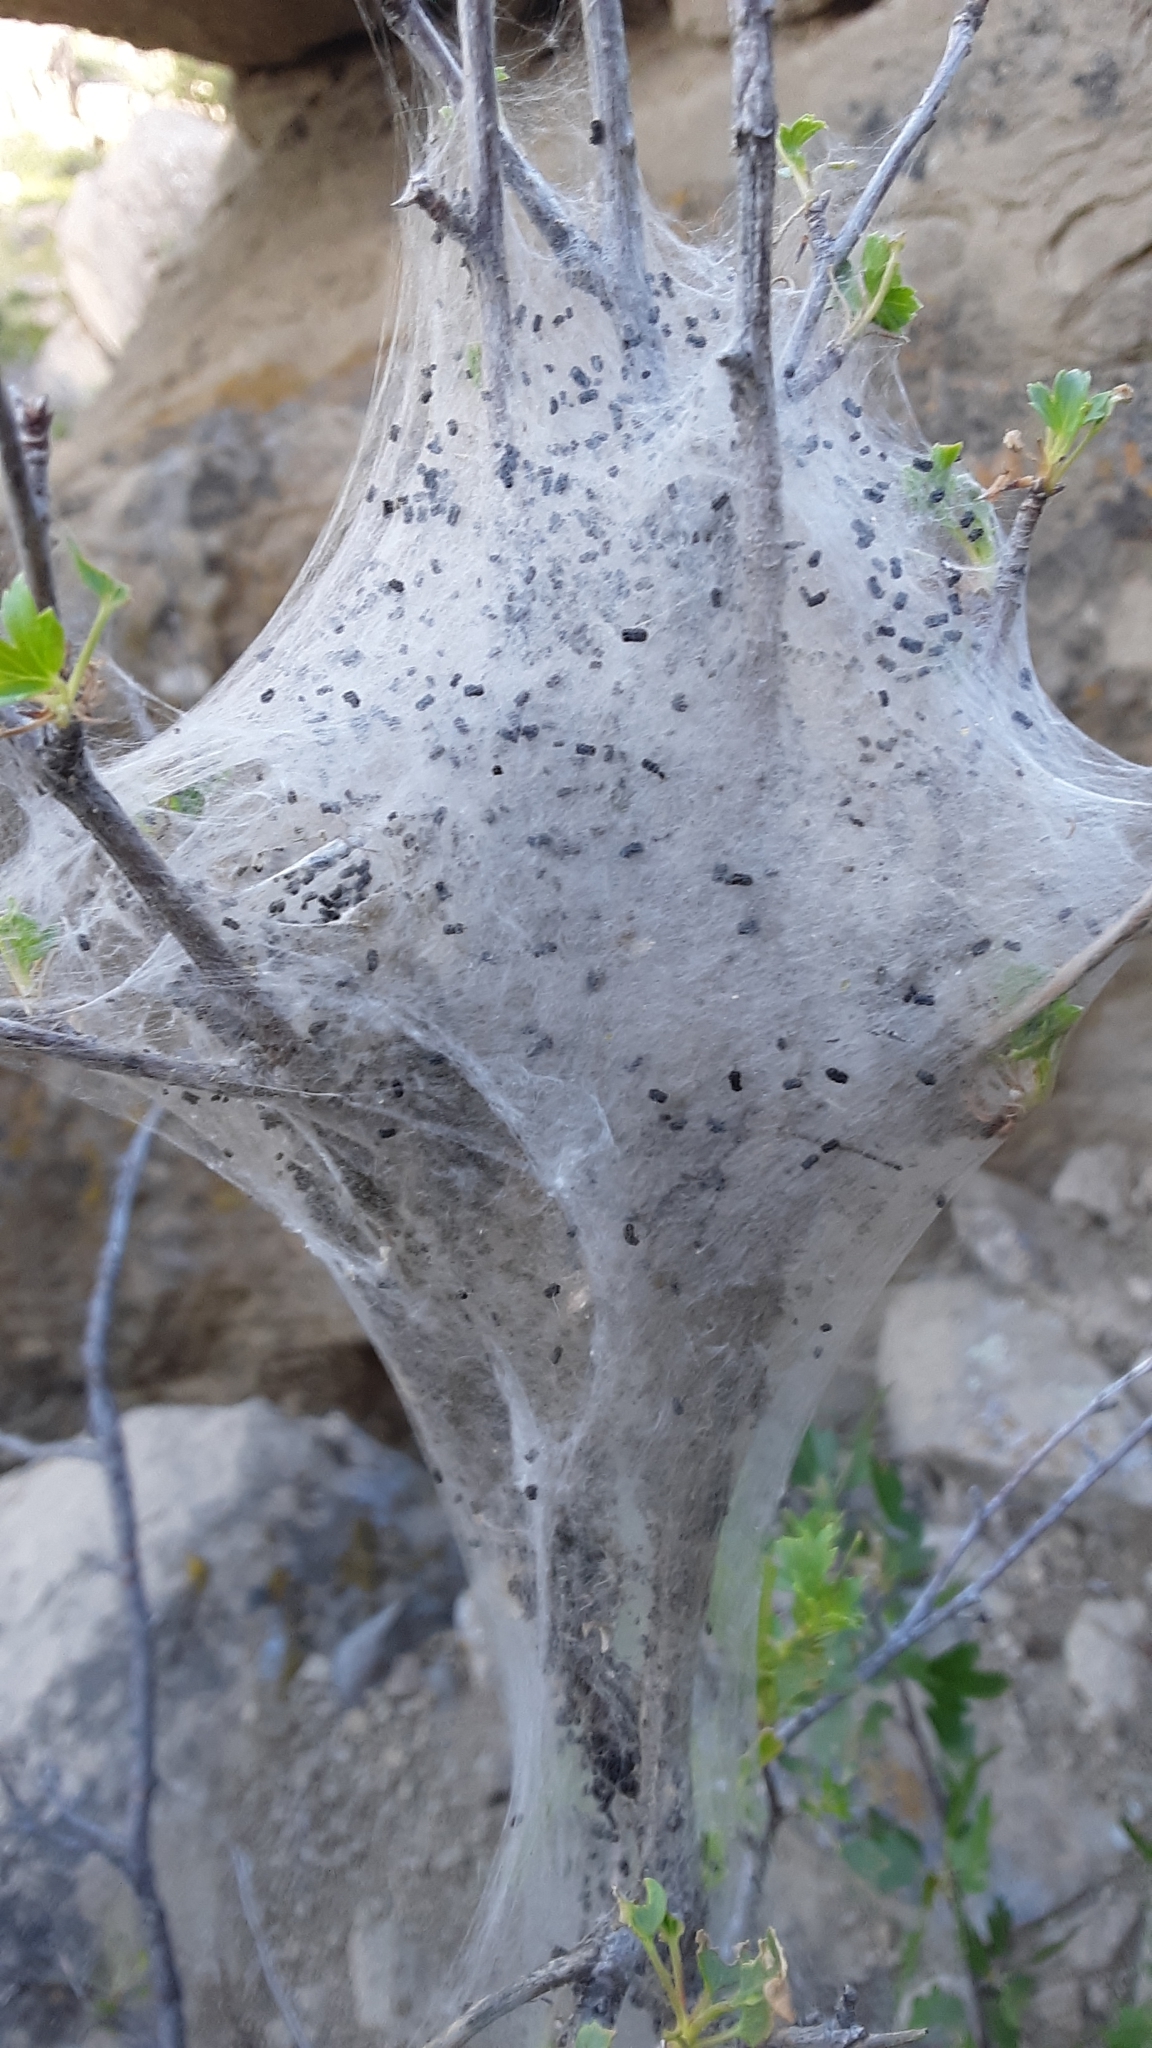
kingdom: Animalia
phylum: Arthropoda
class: Insecta
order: Lepidoptera
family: Lasiocampidae
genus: Malacosoma
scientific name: Malacosoma californica
